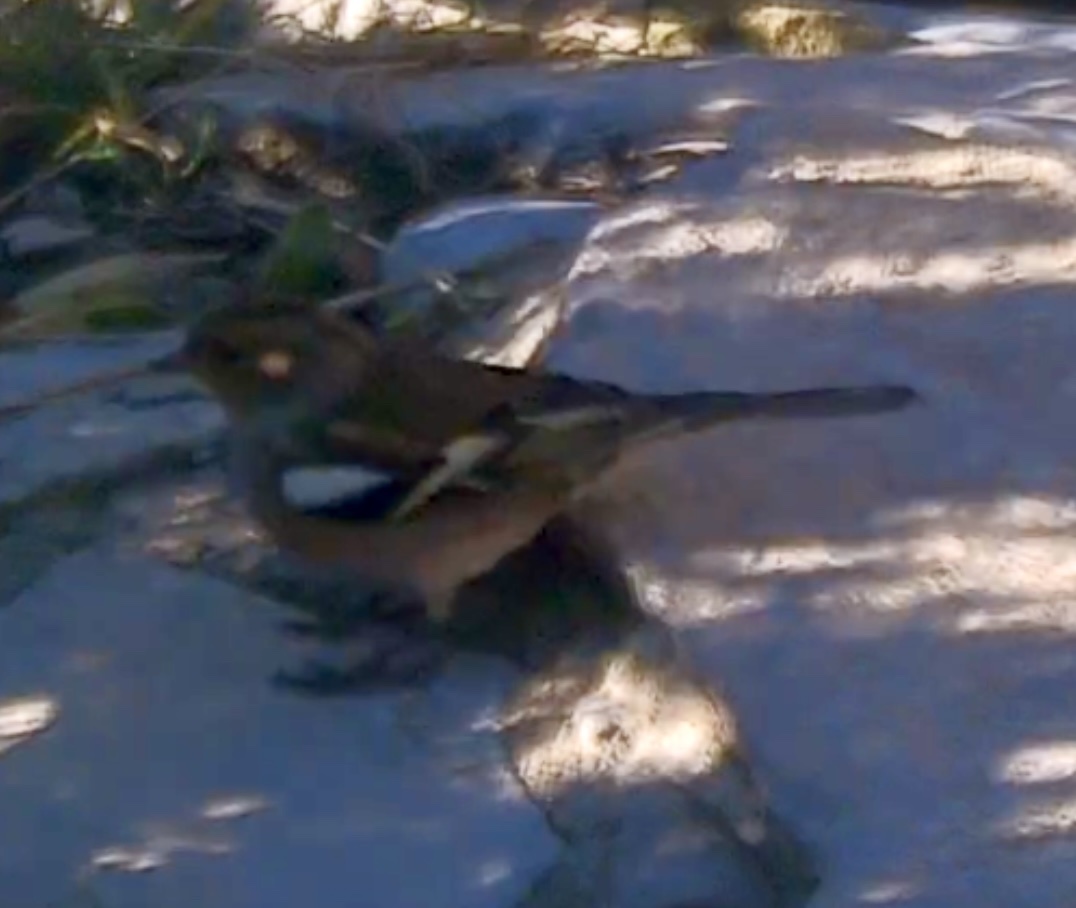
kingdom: Animalia
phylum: Chordata
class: Aves
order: Passeriformes
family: Fringillidae
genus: Fringilla
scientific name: Fringilla coelebs
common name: Common chaffinch
